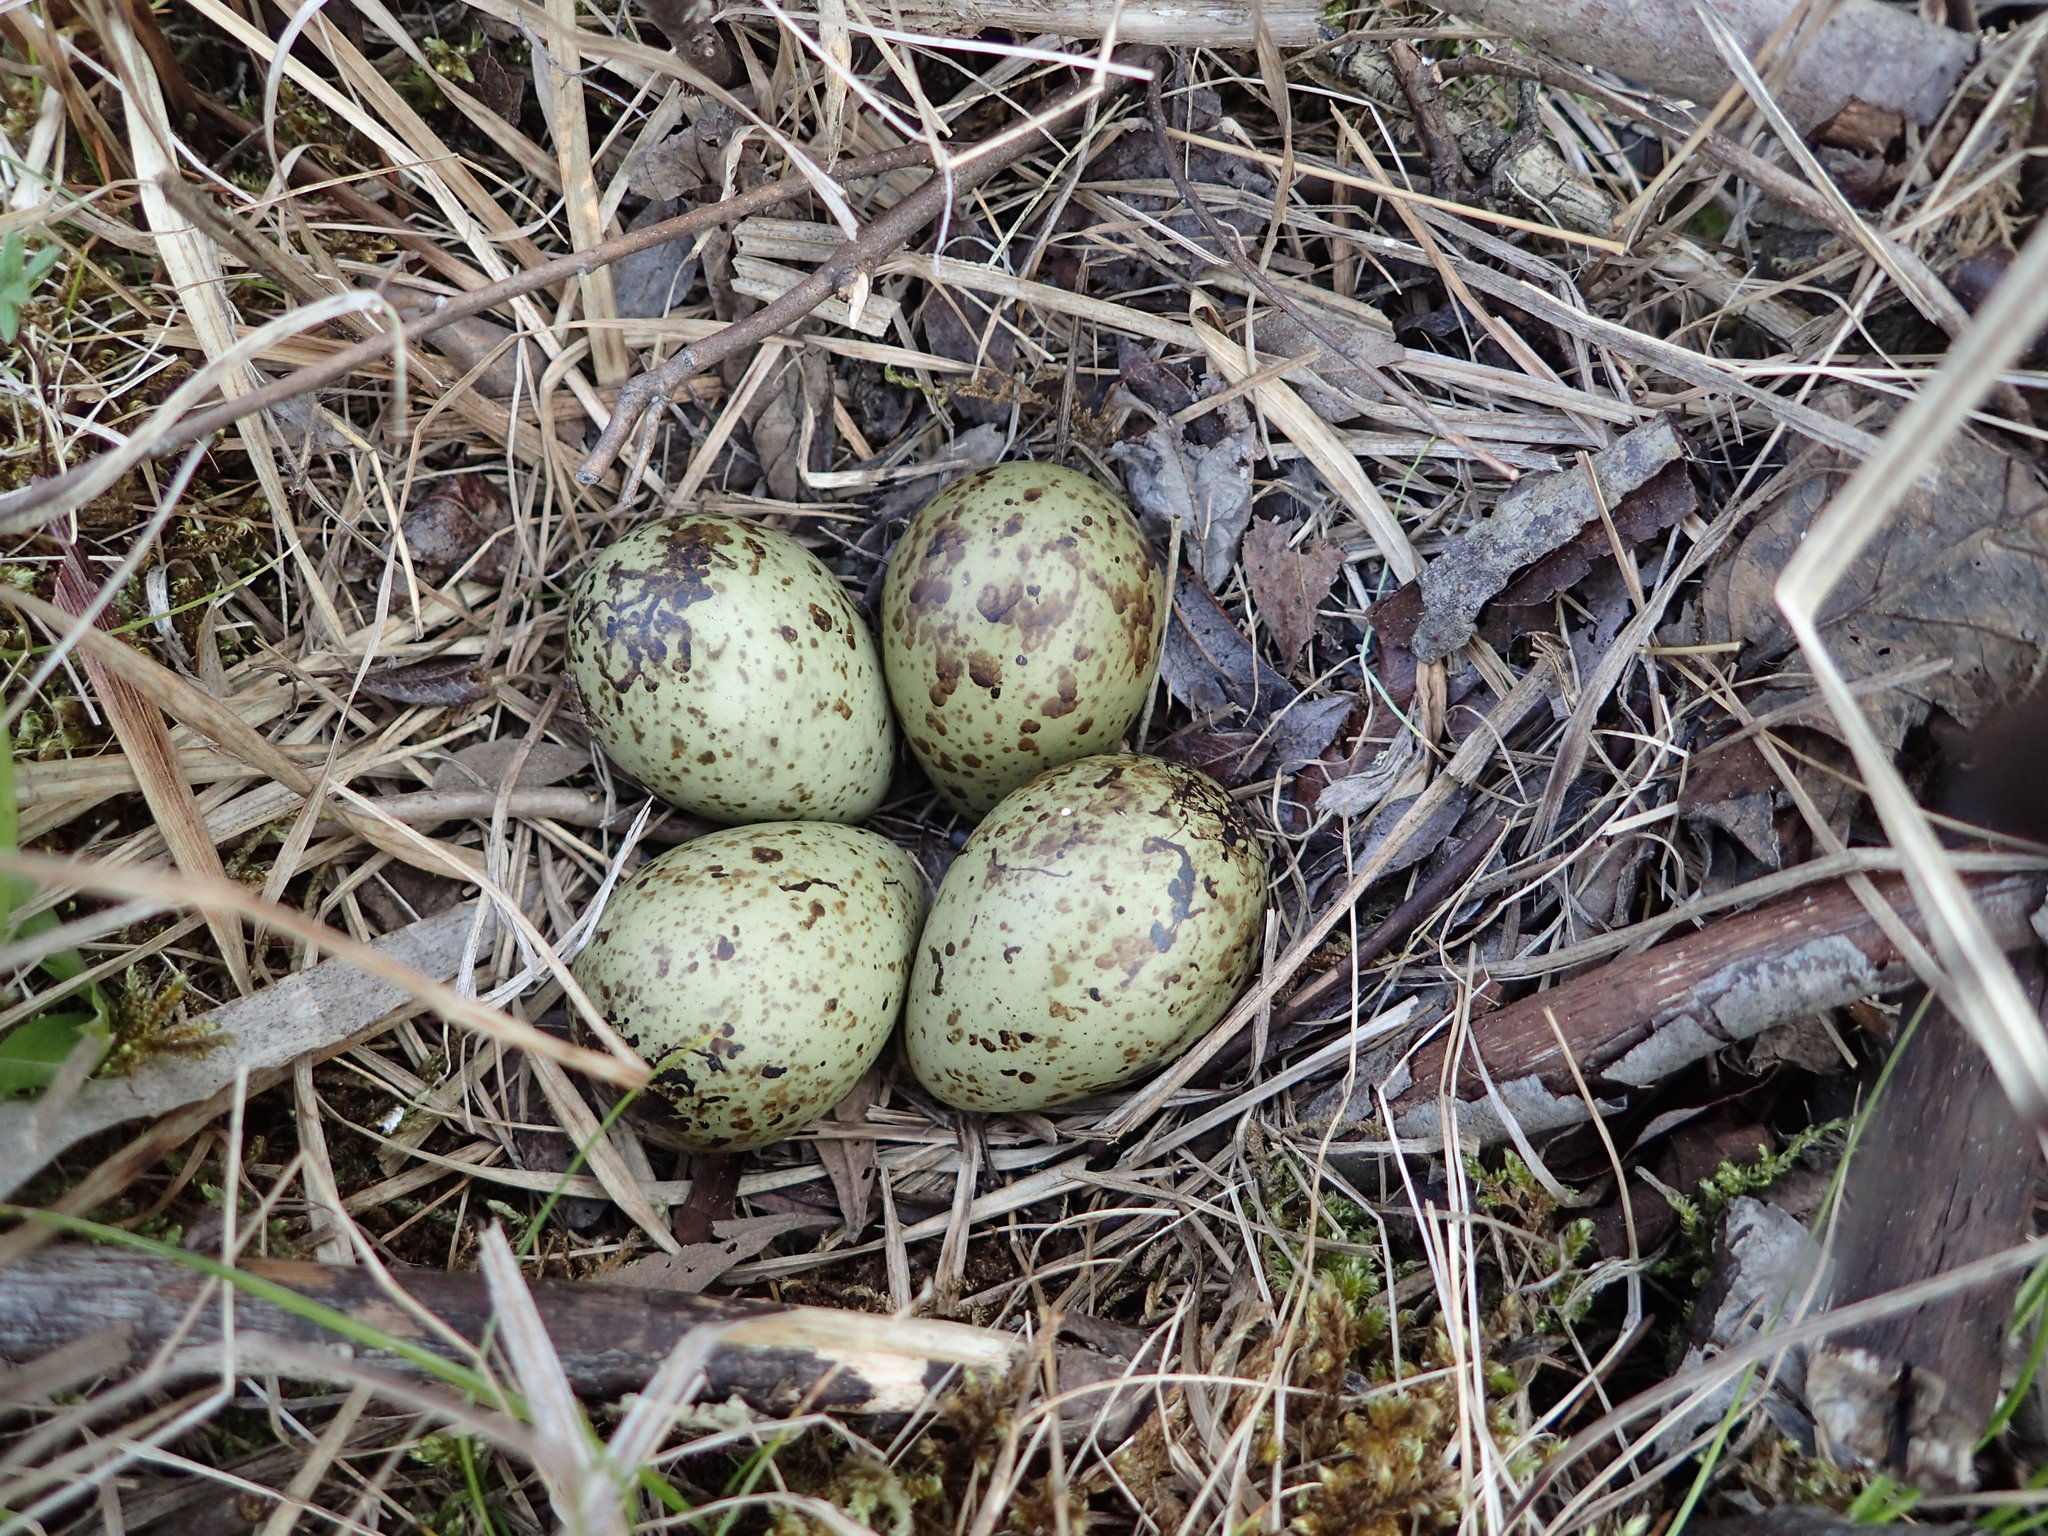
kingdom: Animalia
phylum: Chordata
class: Aves
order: Charadriiformes
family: Scolopacidae
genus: Gallinago
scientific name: Gallinago delicata
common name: Wilson's snipe
